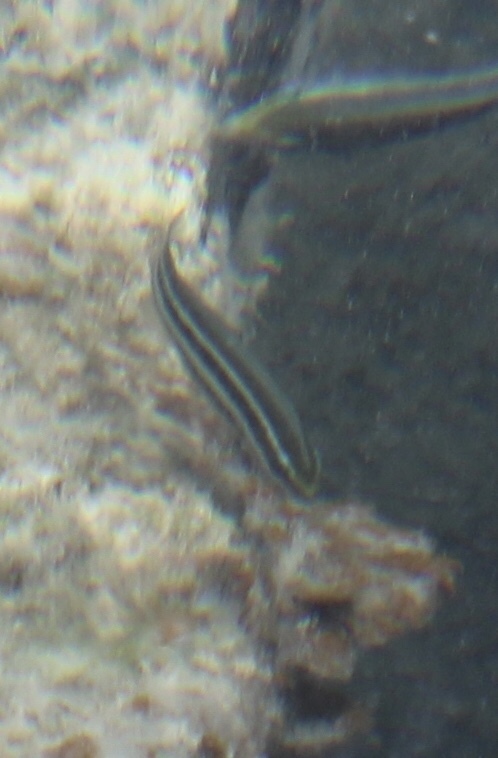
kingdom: Animalia
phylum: Chordata
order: Perciformes
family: Scaridae
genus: Scarus
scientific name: Scarus iseri
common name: Striped parrotfish
